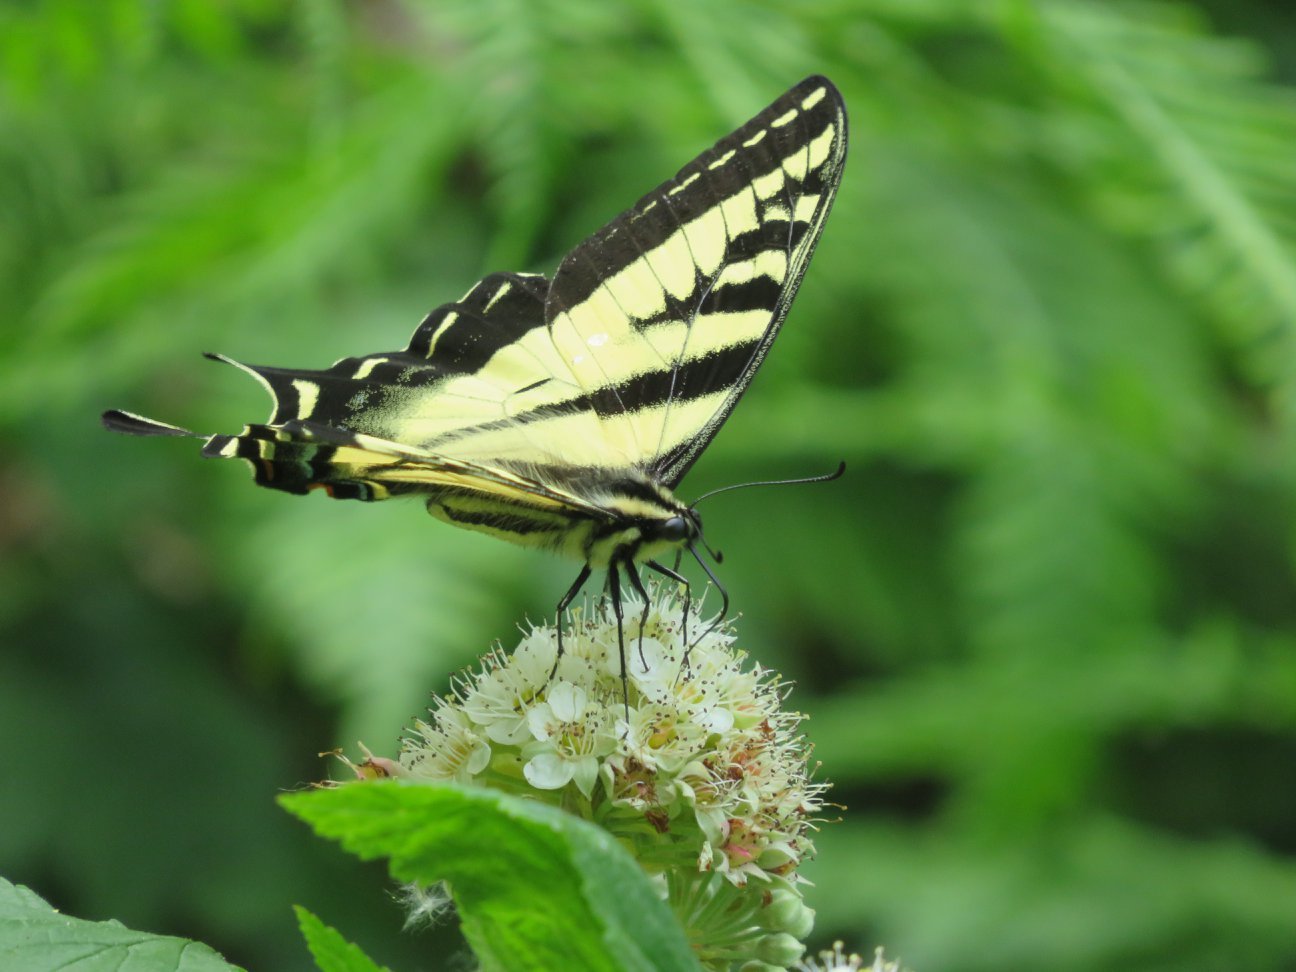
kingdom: Animalia
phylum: Arthropoda
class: Insecta
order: Lepidoptera
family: Papilionidae
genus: Papilio
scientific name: Papilio rutulus
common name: Western tiger swallowtail
